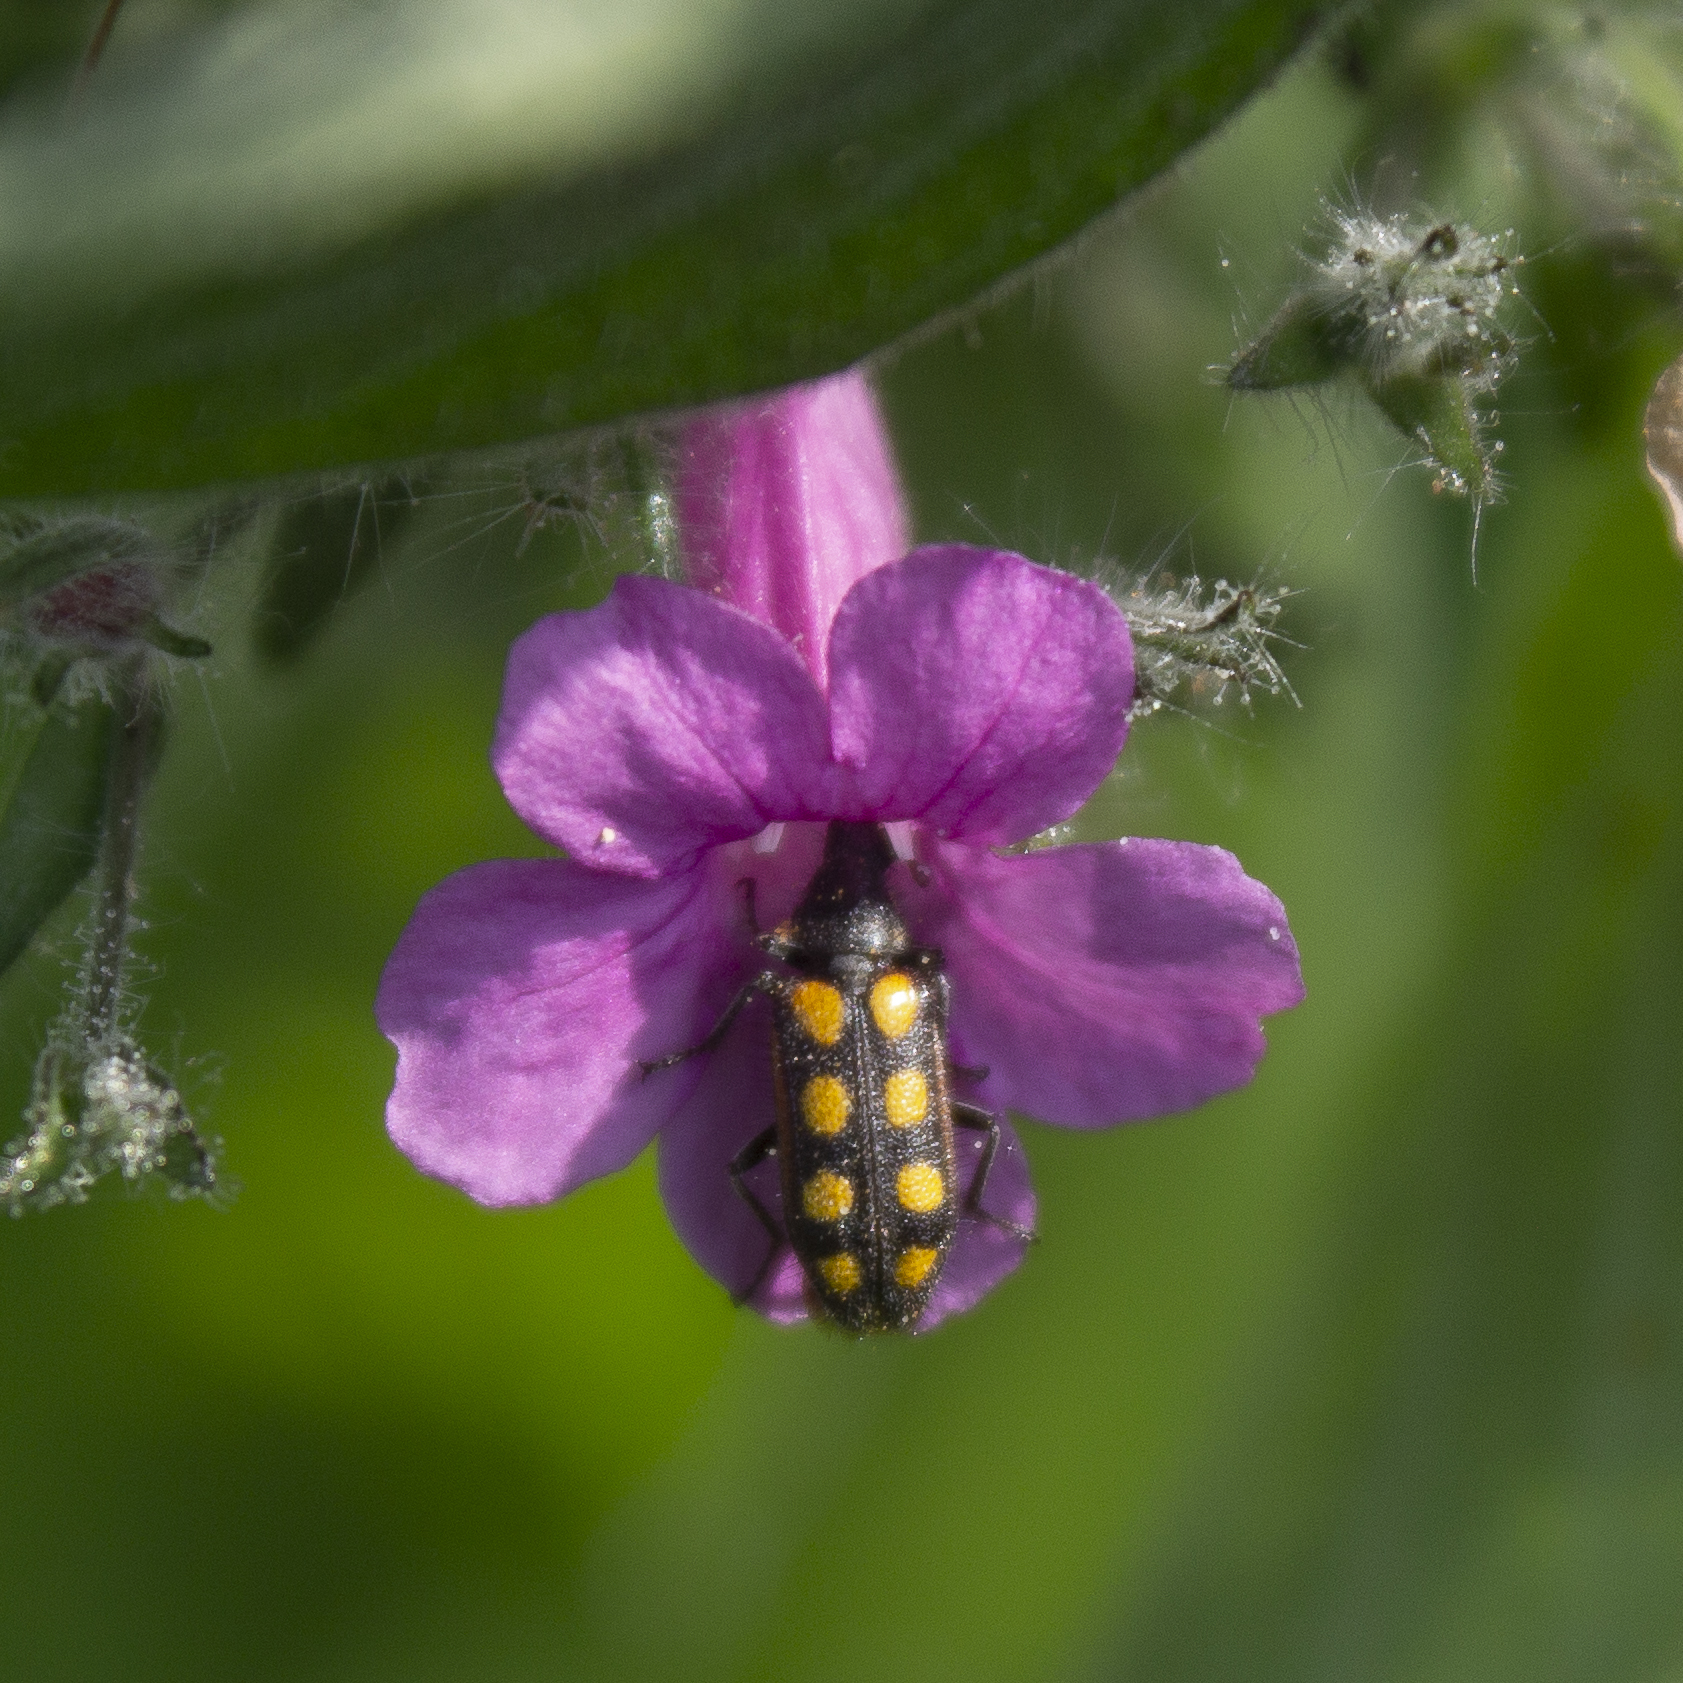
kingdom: Animalia
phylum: Arthropoda
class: Insecta
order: Coleoptera
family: Melyridae
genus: Astylus
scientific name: Astylus
